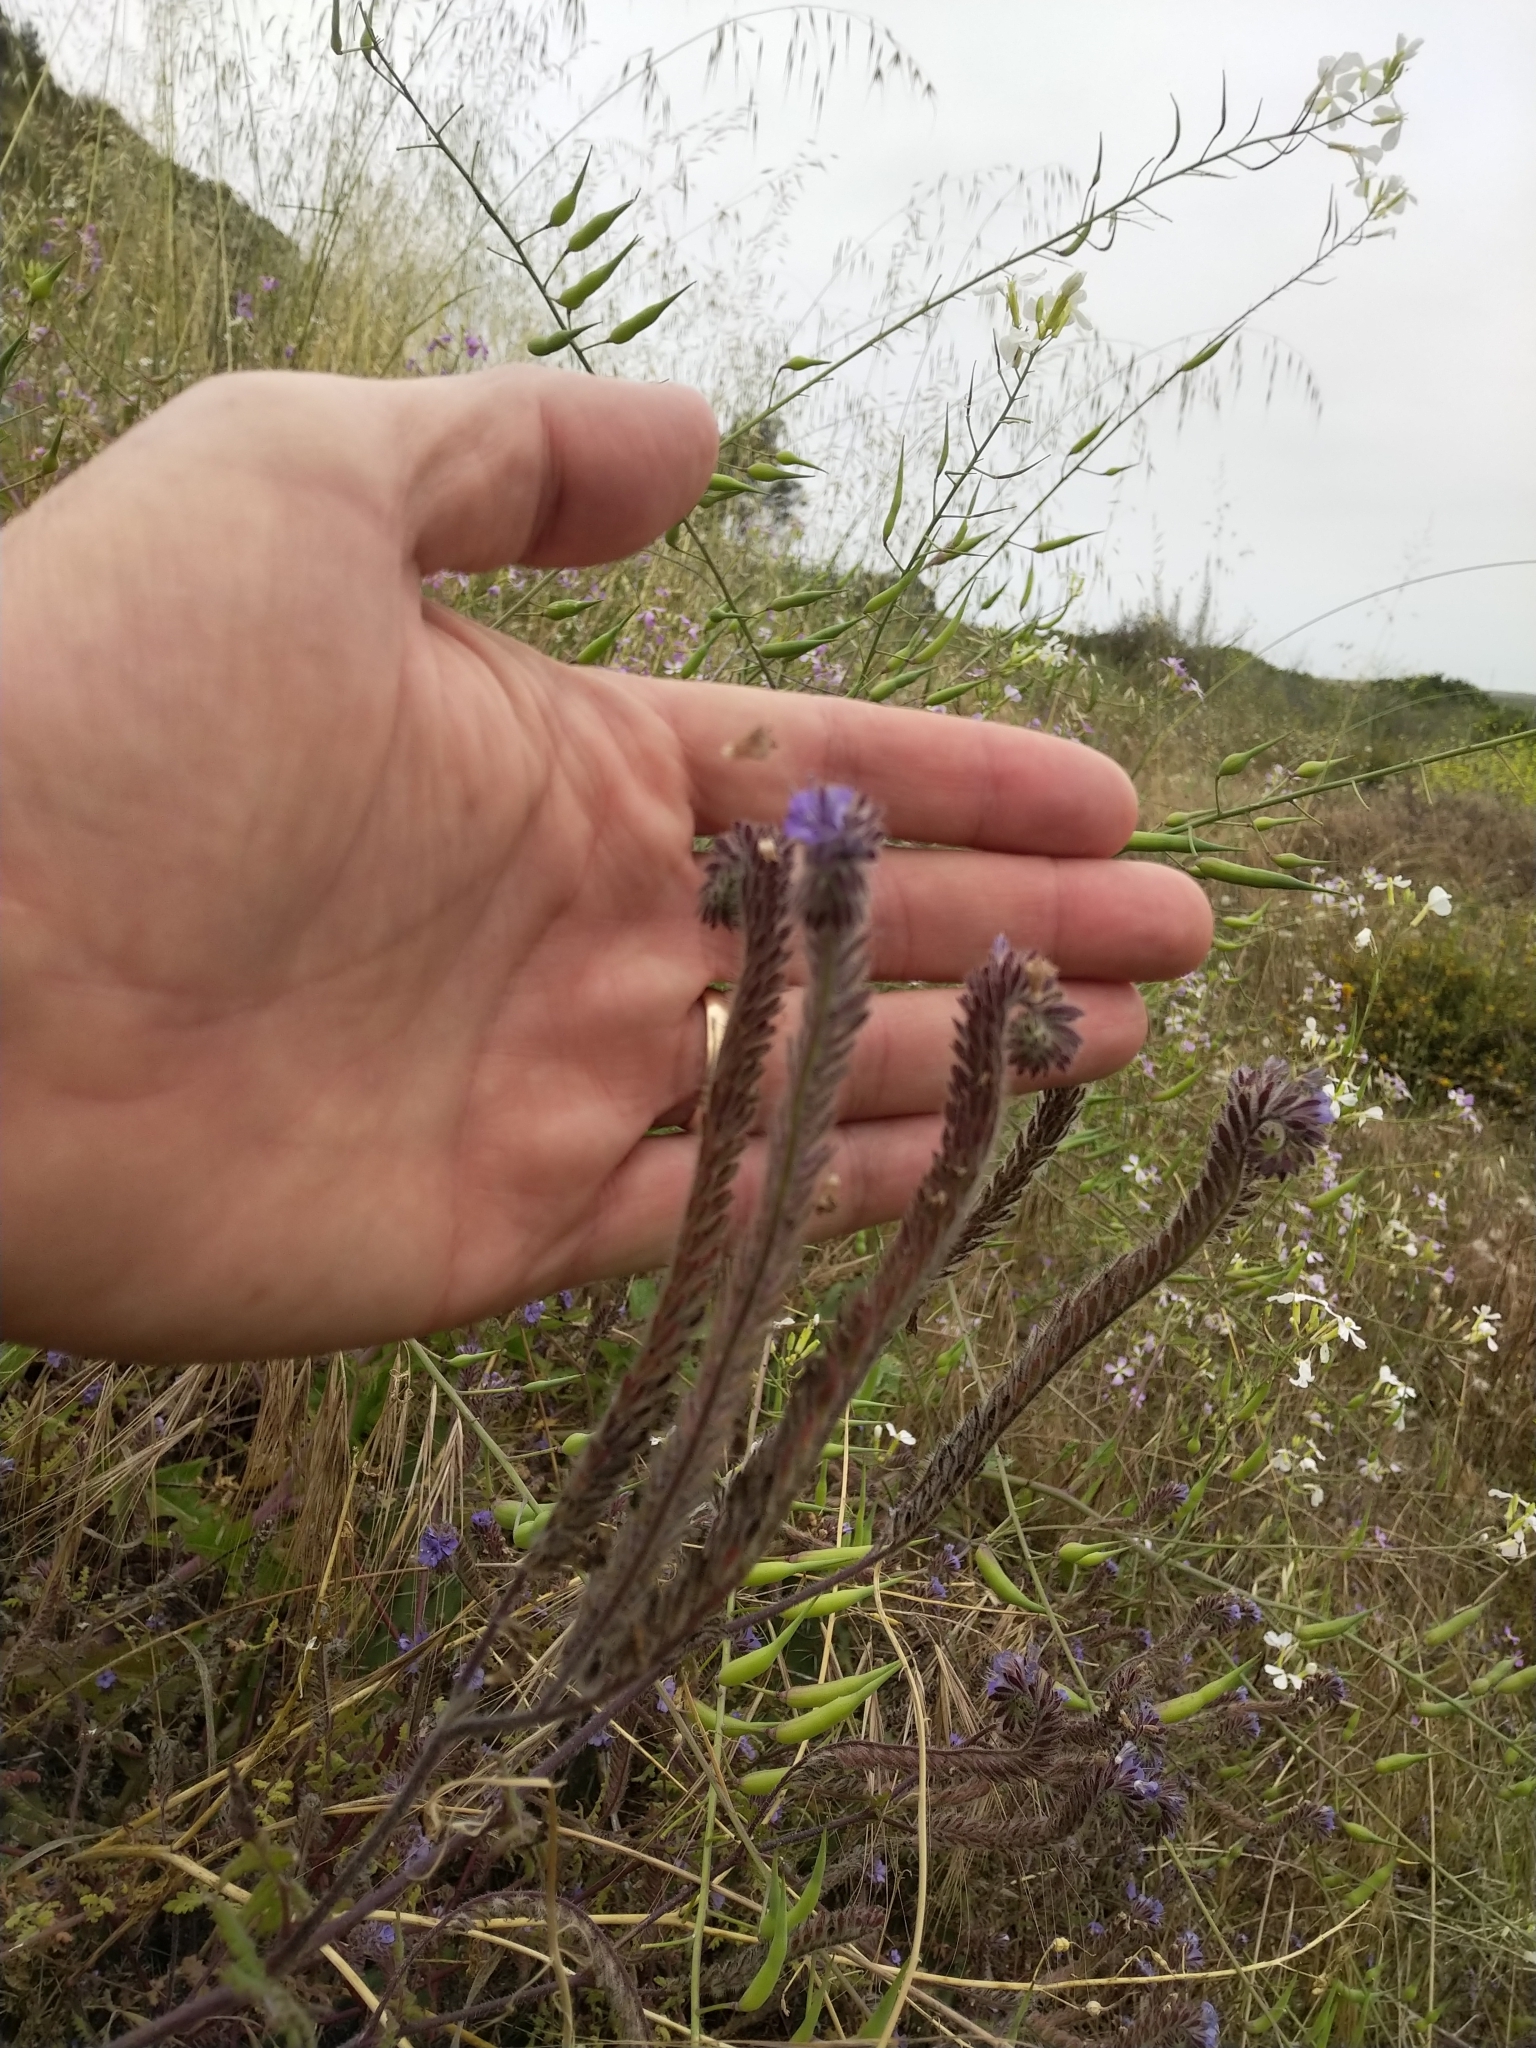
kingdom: Plantae
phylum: Tracheophyta
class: Magnoliopsida
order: Boraginales
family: Hydrophyllaceae
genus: Phacelia
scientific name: Phacelia distans
